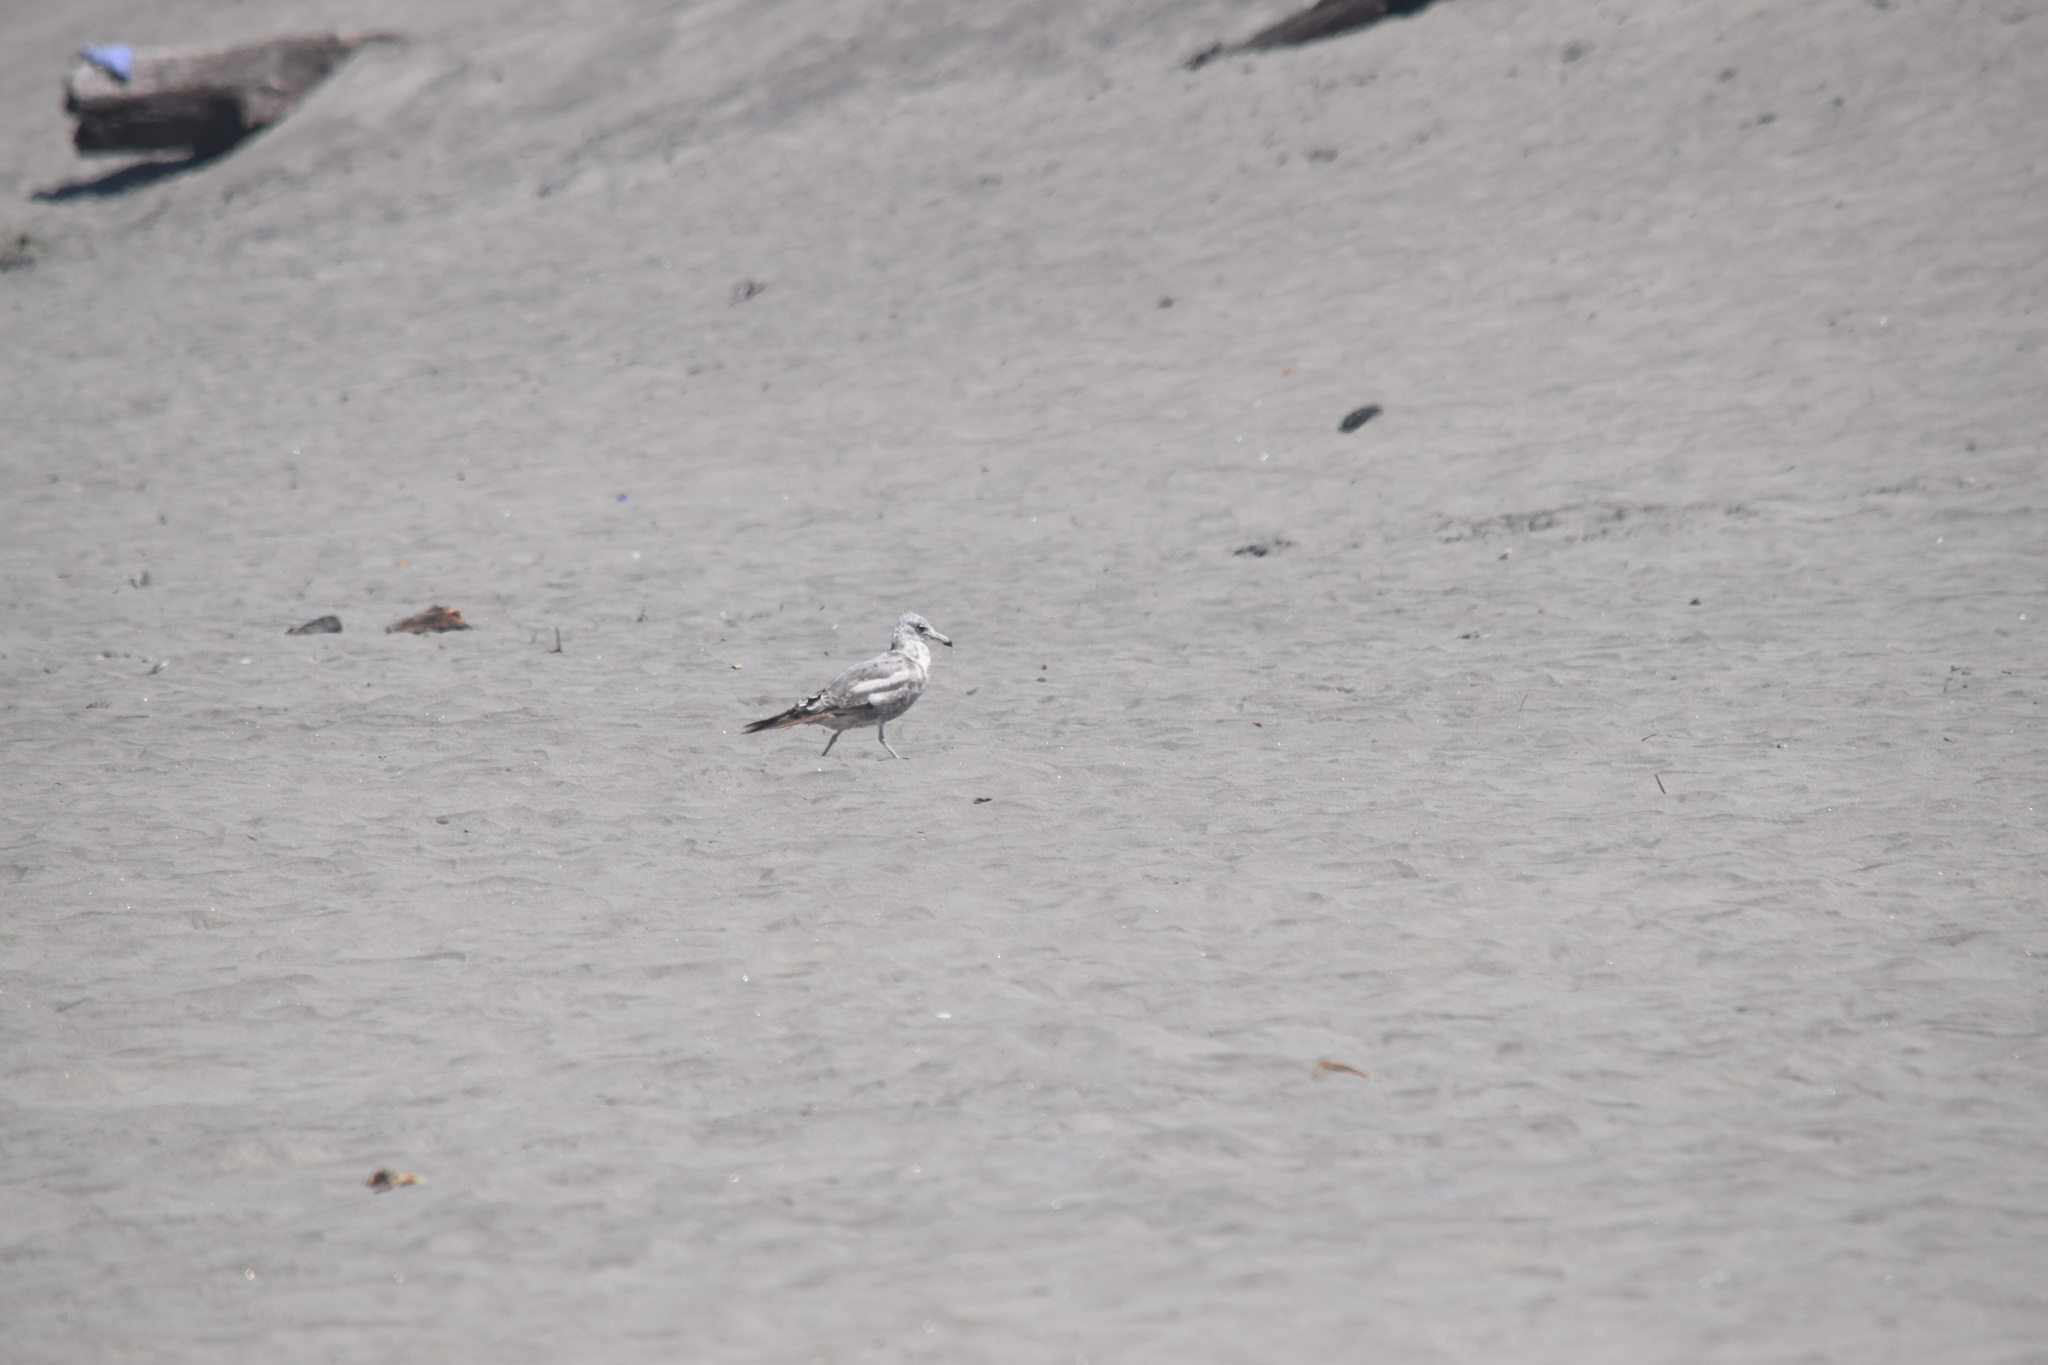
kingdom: Animalia
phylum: Chordata
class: Aves
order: Charadriiformes
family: Laridae
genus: Larus
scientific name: Larus californicus
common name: California gull
